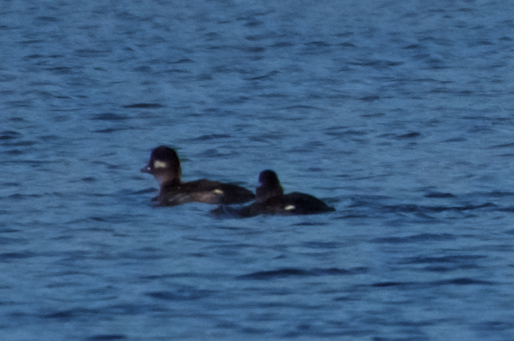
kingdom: Animalia
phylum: Chordata
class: Aves
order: Anseriformes
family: Anatidae
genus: Bucephala
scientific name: Bucephala albeola
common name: Bufflehead
